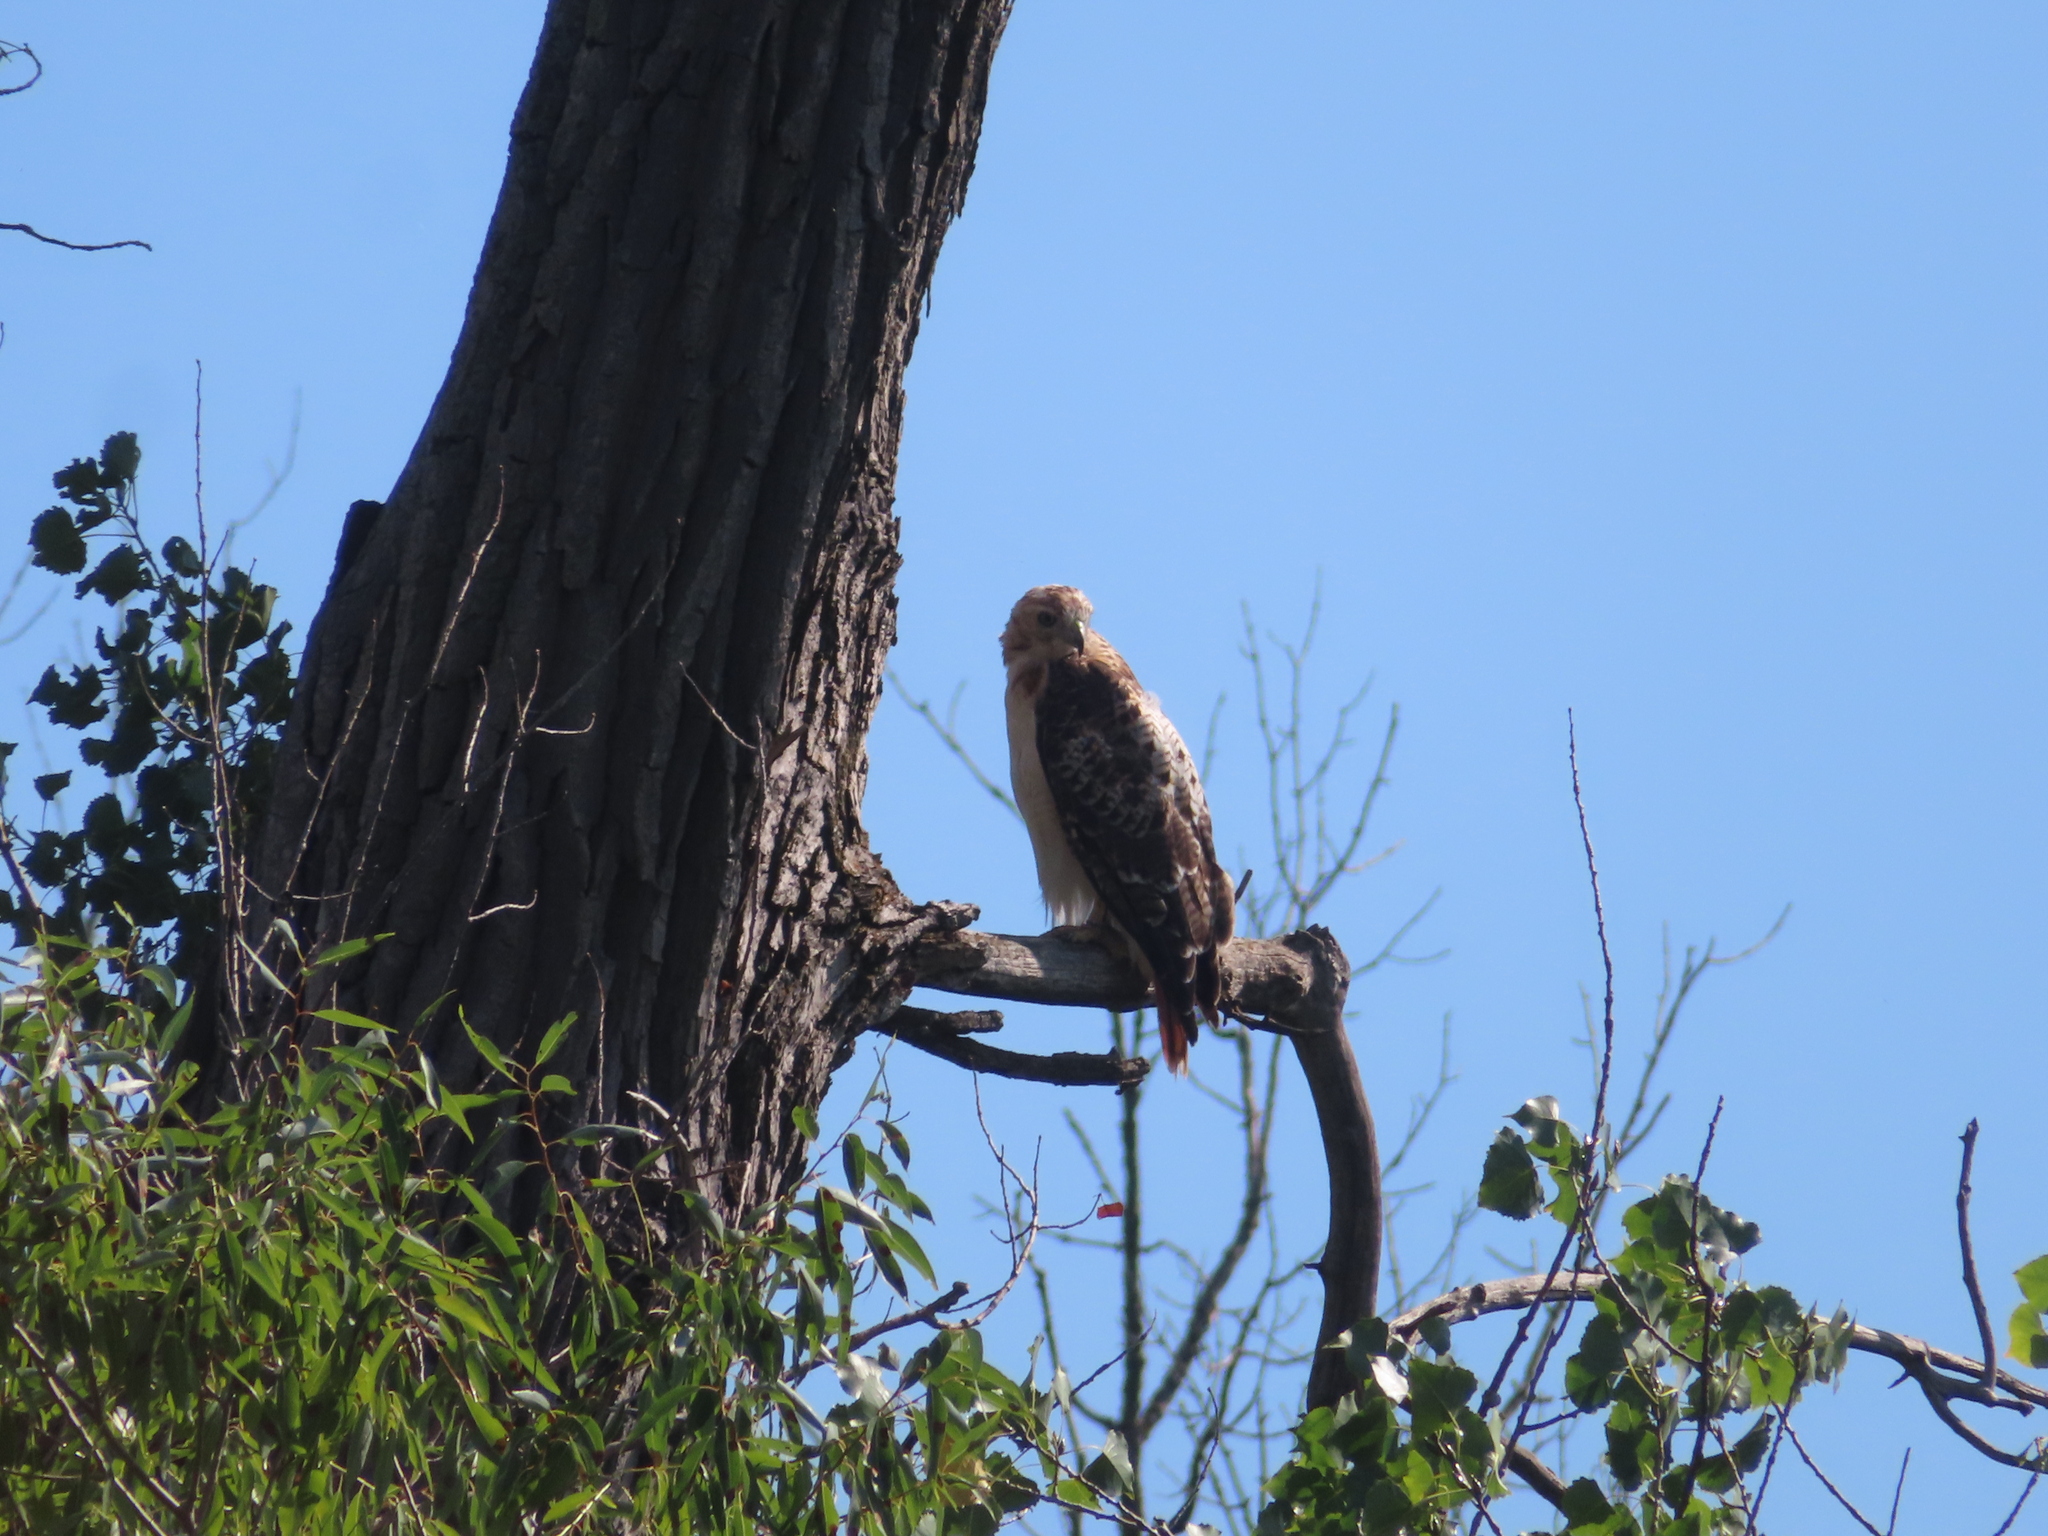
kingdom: Animalia
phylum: Chordata
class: Aves
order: Accipitriformes
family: Accipitridae
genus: Buteo
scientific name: Buteo jamaicensis
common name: Red-tailed hawk
